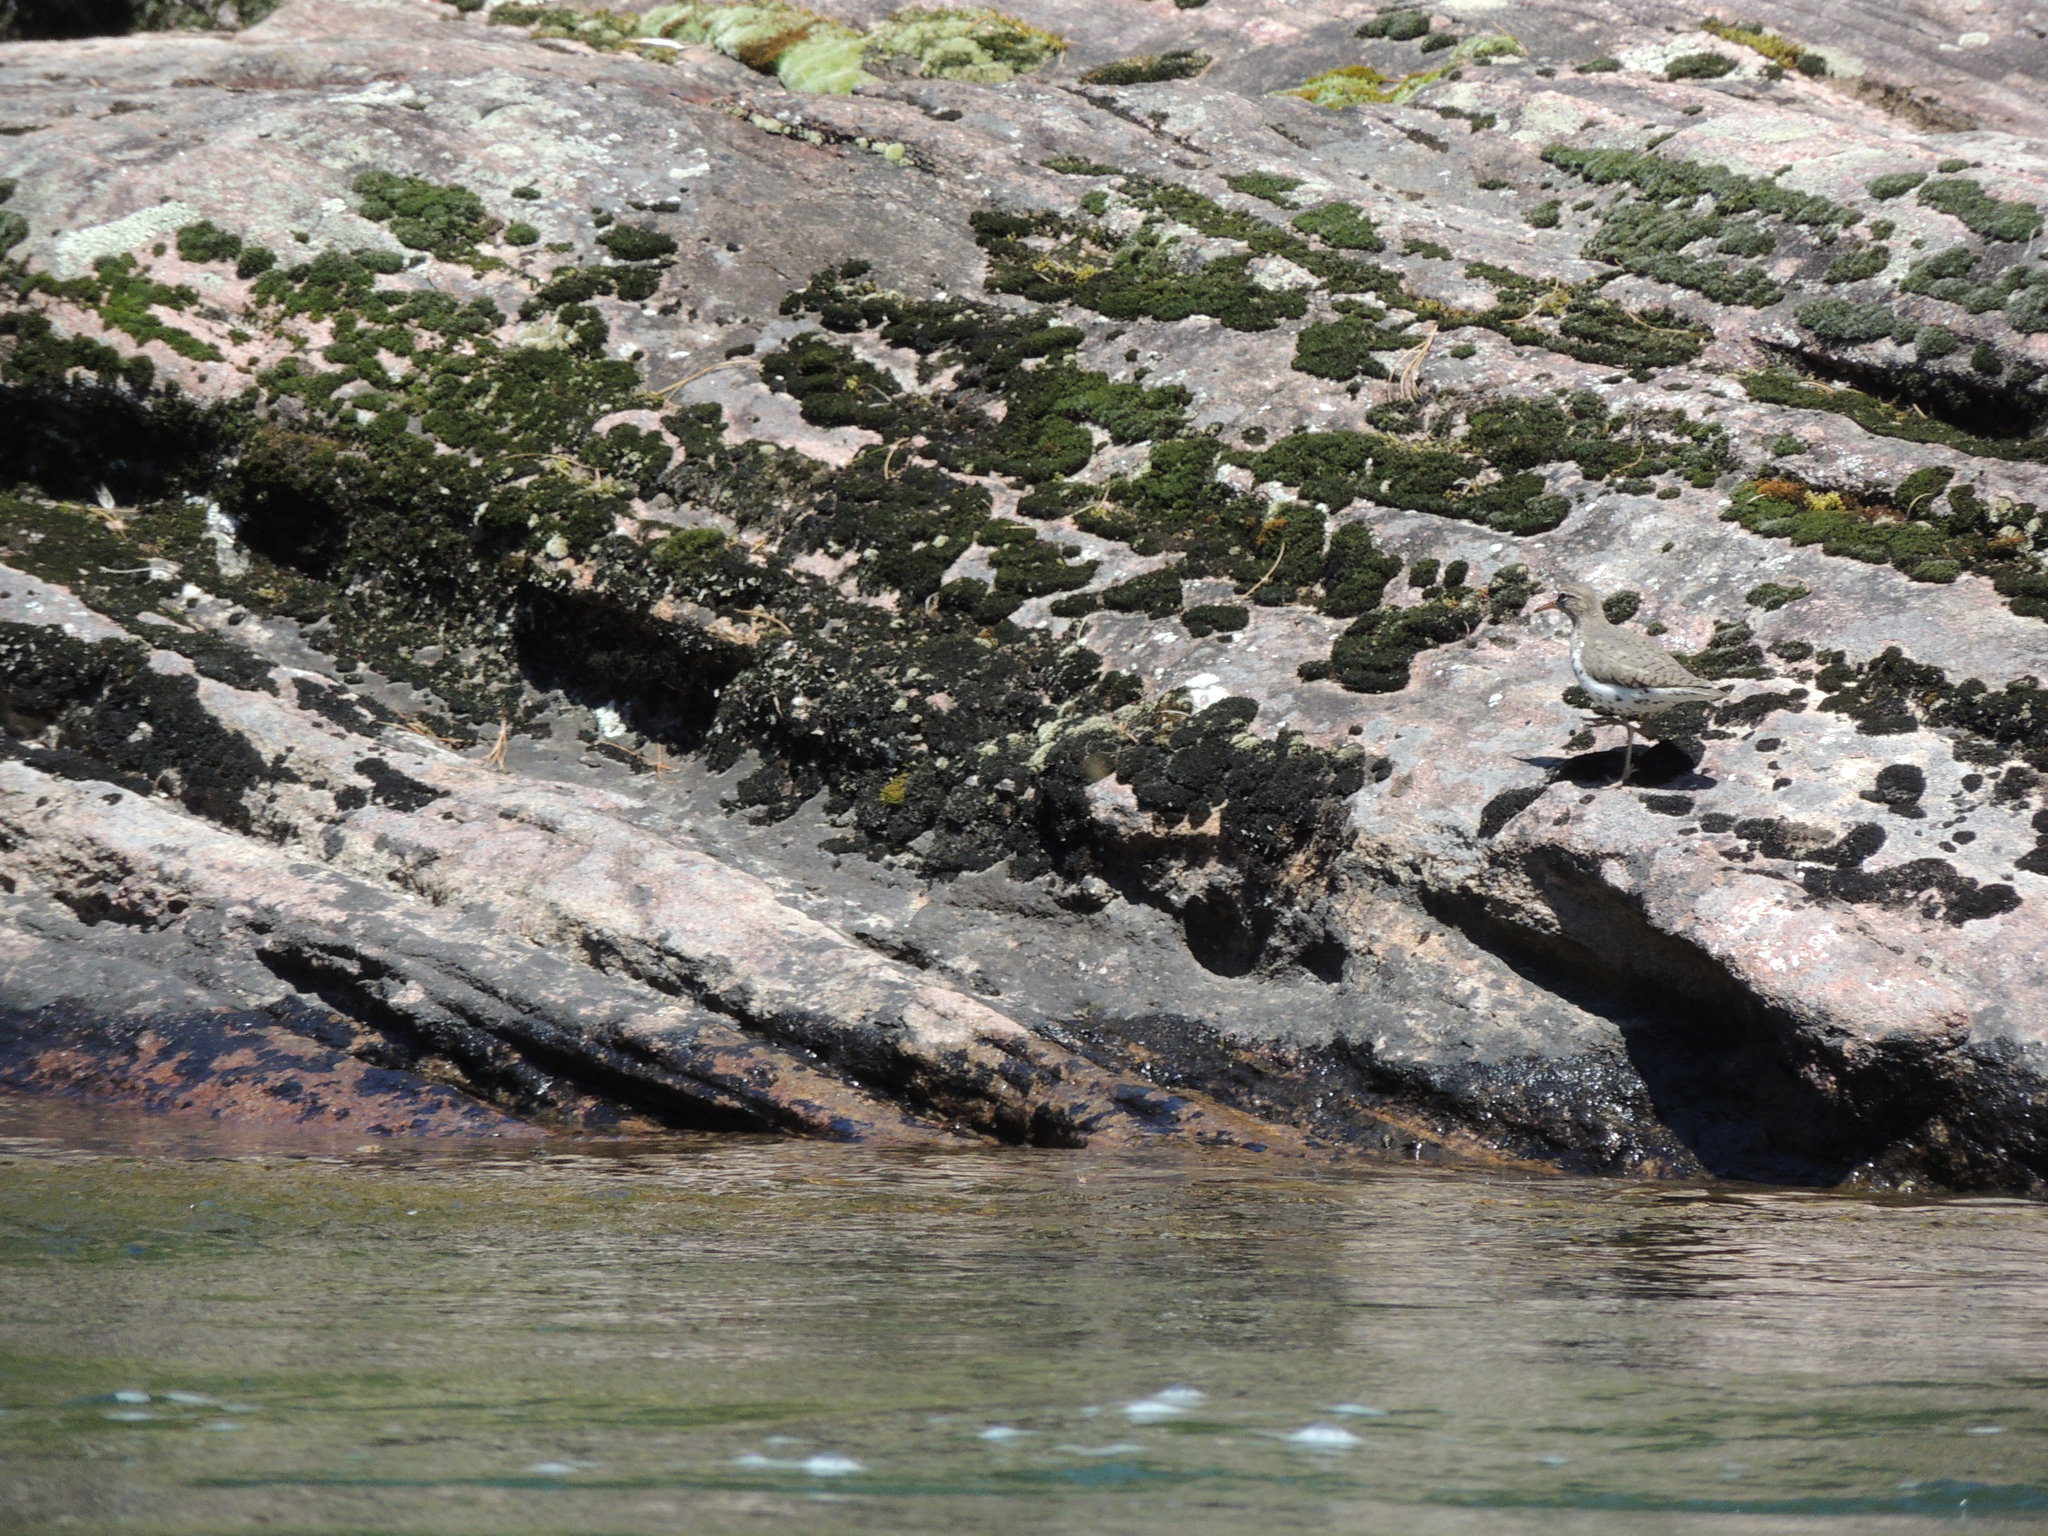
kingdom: Animalia
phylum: Chordata
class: Aves
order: Charadriiformes
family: Scolopacidae
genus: Actitis
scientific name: Actitis macularius
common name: Spotted sandpiper
